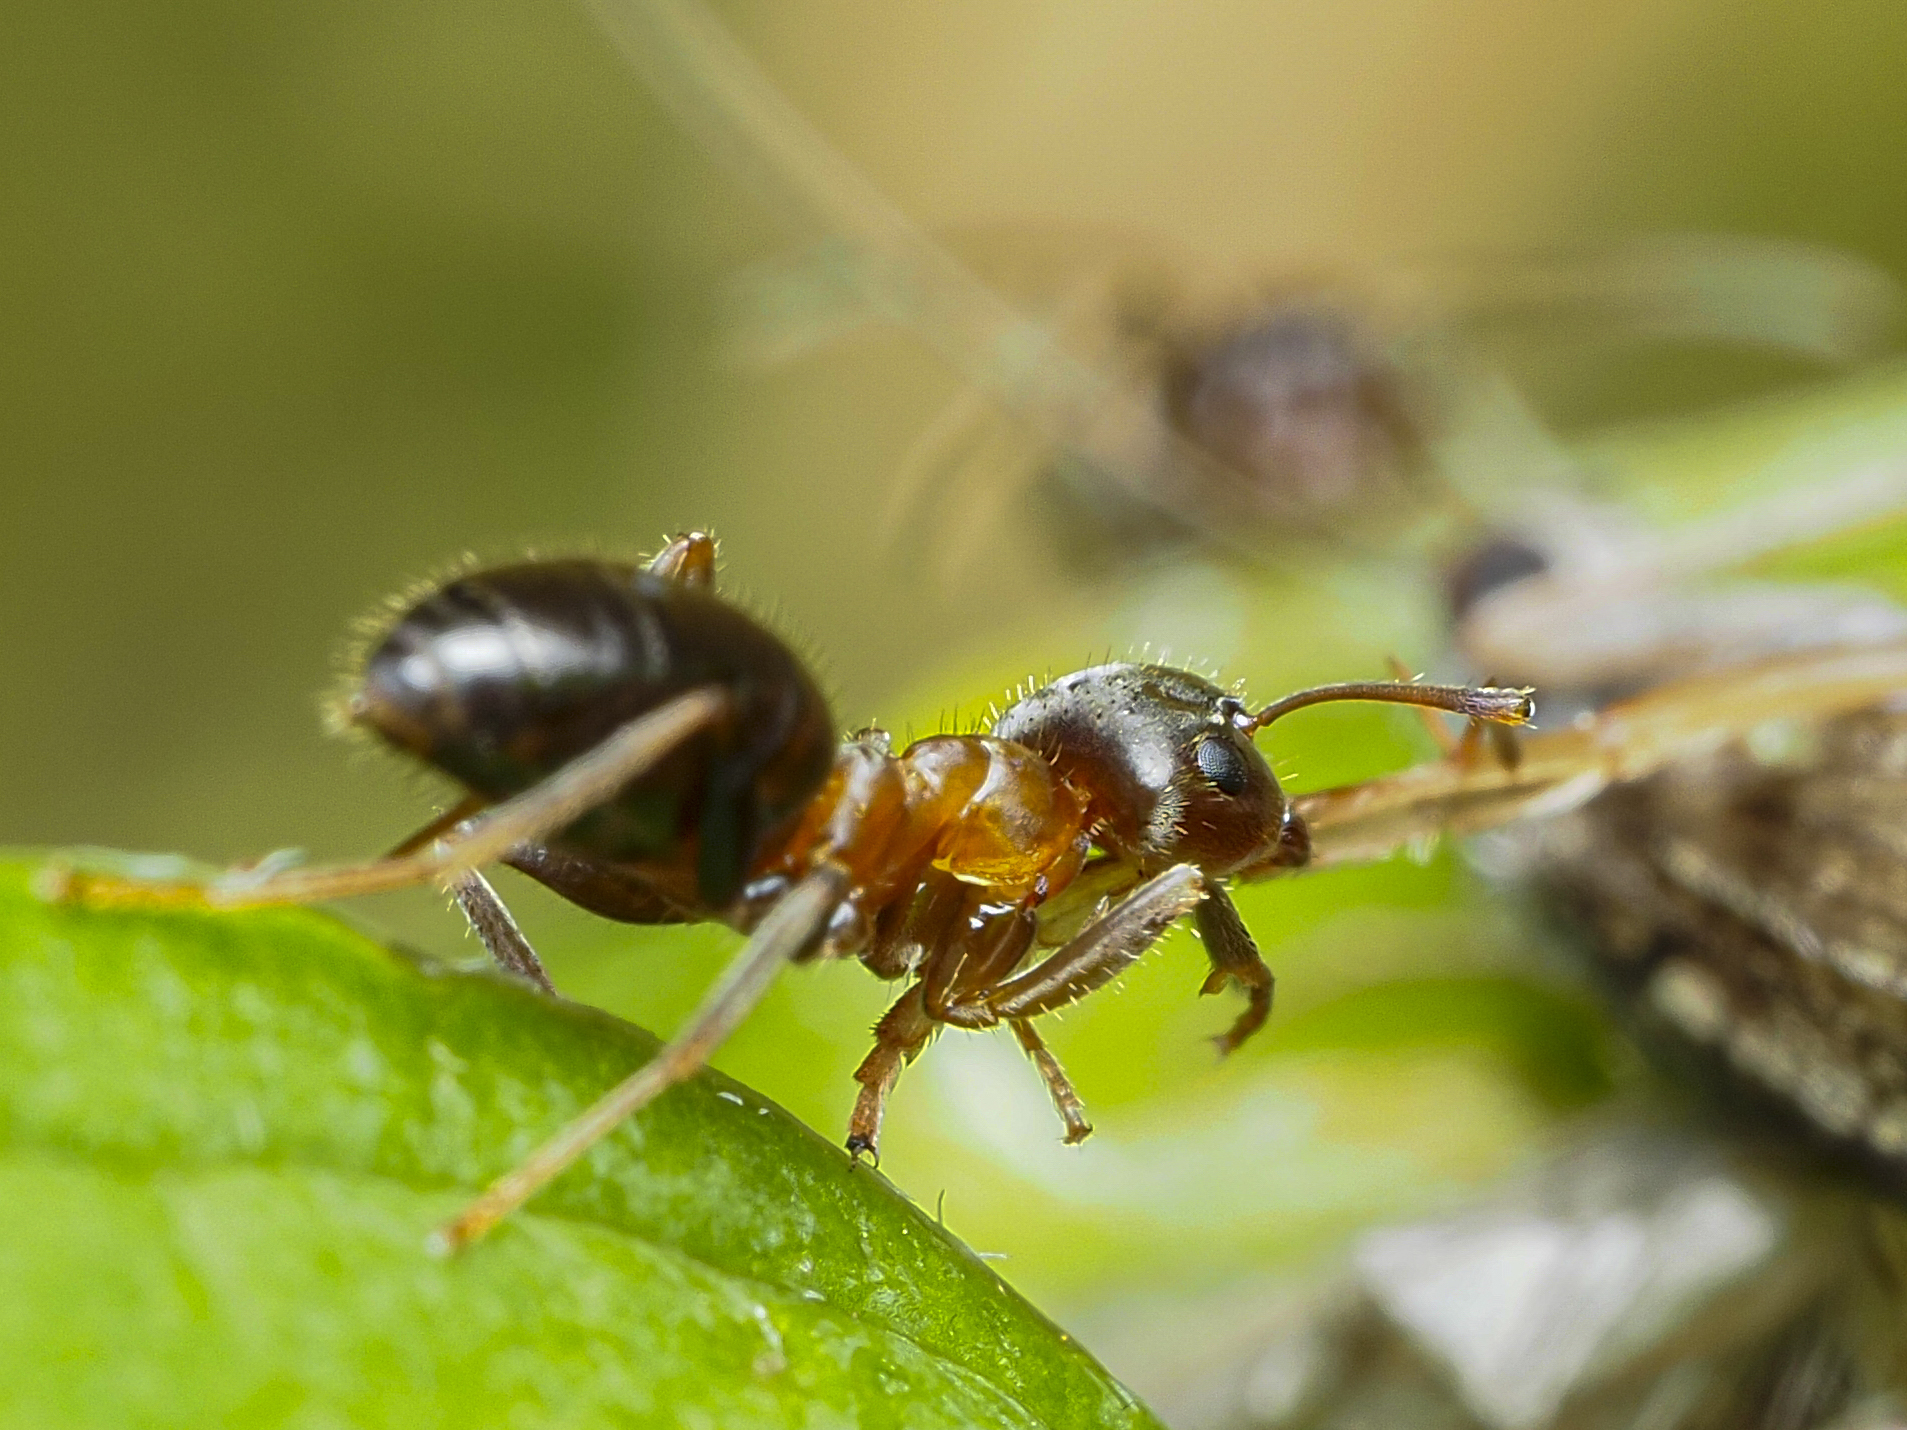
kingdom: Animalia
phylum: Arthropoda
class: Insecta
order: Hymenoptera
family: Formicidae
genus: Lasius
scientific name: Lasius emarginatus
